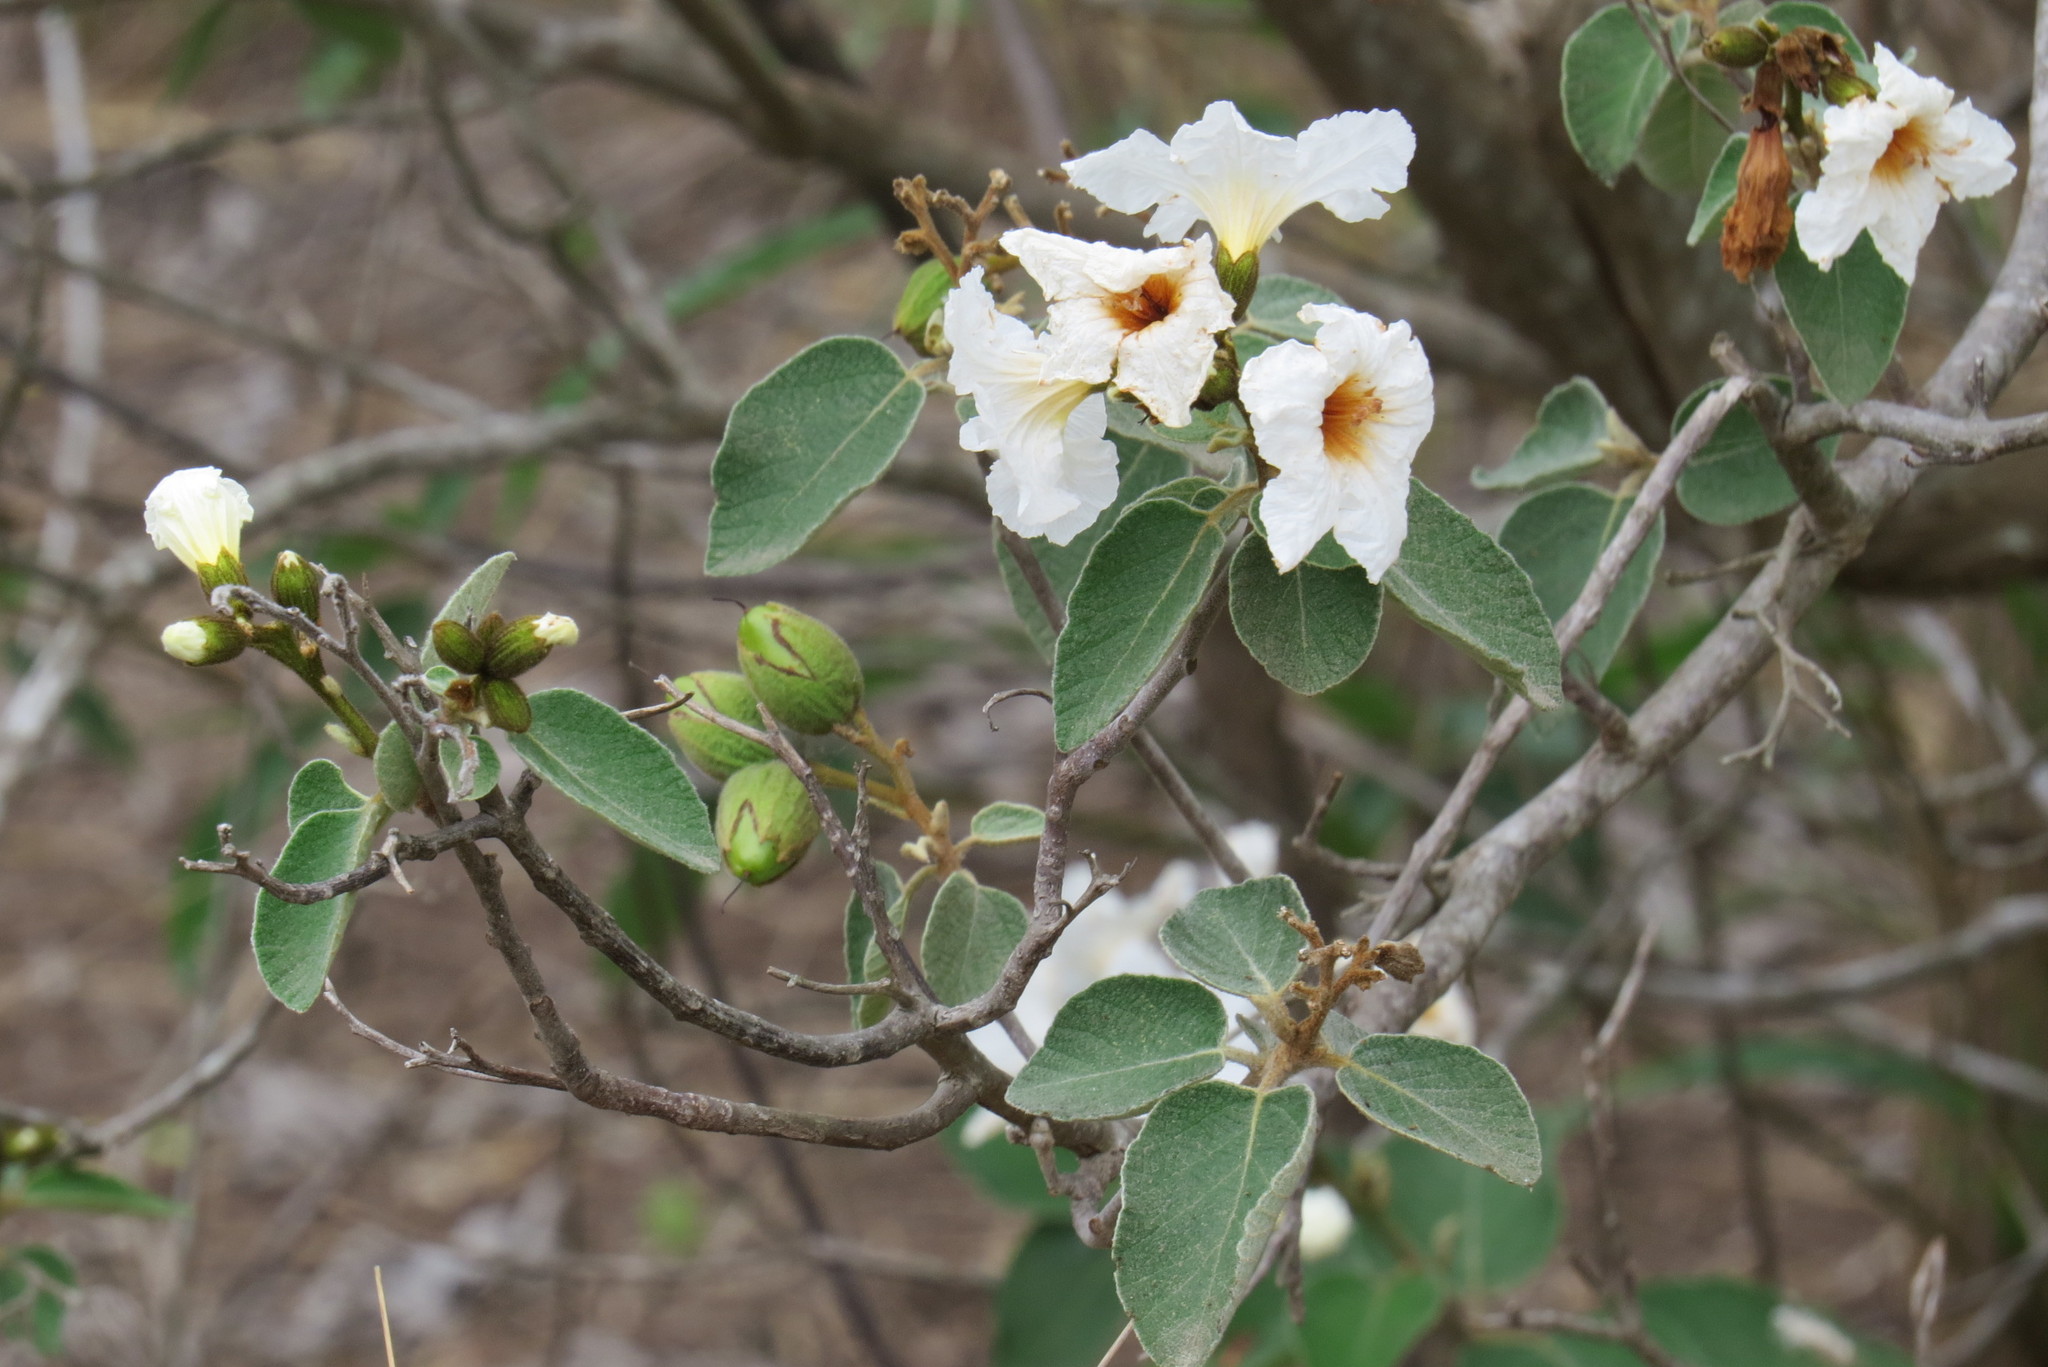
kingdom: Plantae
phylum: Tracheophyta
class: Magnoliopsida
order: Boraginales
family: Cordiaceae
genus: Cordia
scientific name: Cordia boissieri
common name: Mexican-olive
